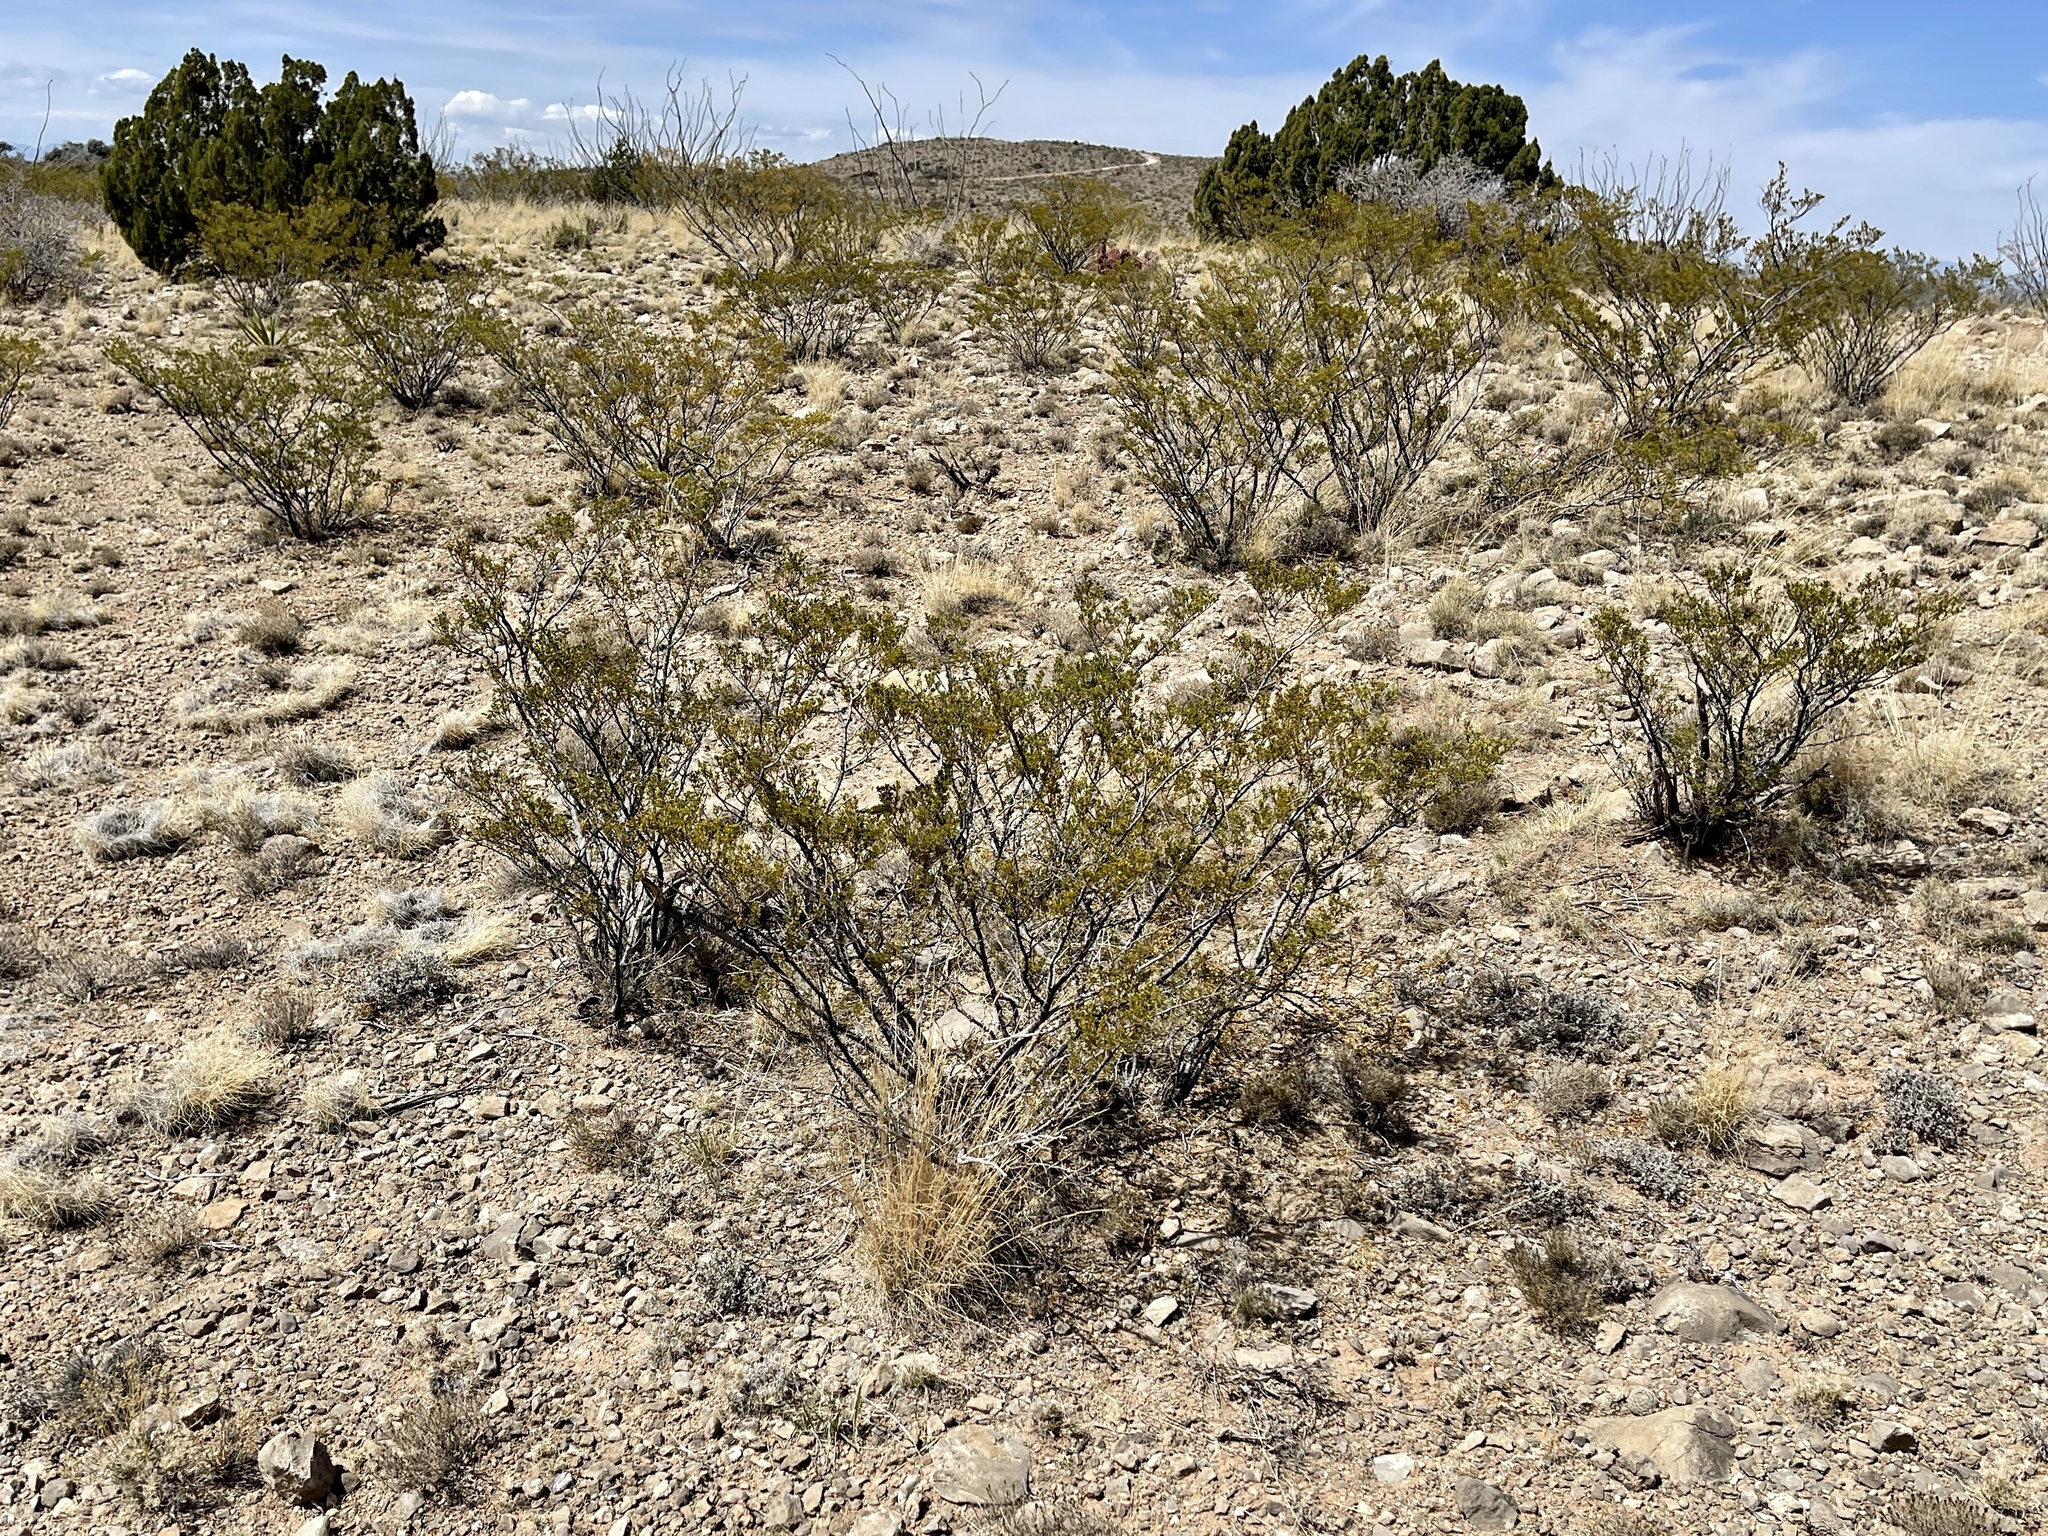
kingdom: Plantae
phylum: Tracheophyta
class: Magnoliopsida
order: Zygophyllales
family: Zygophyllaceae
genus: Larrea
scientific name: Larrea tridentata
